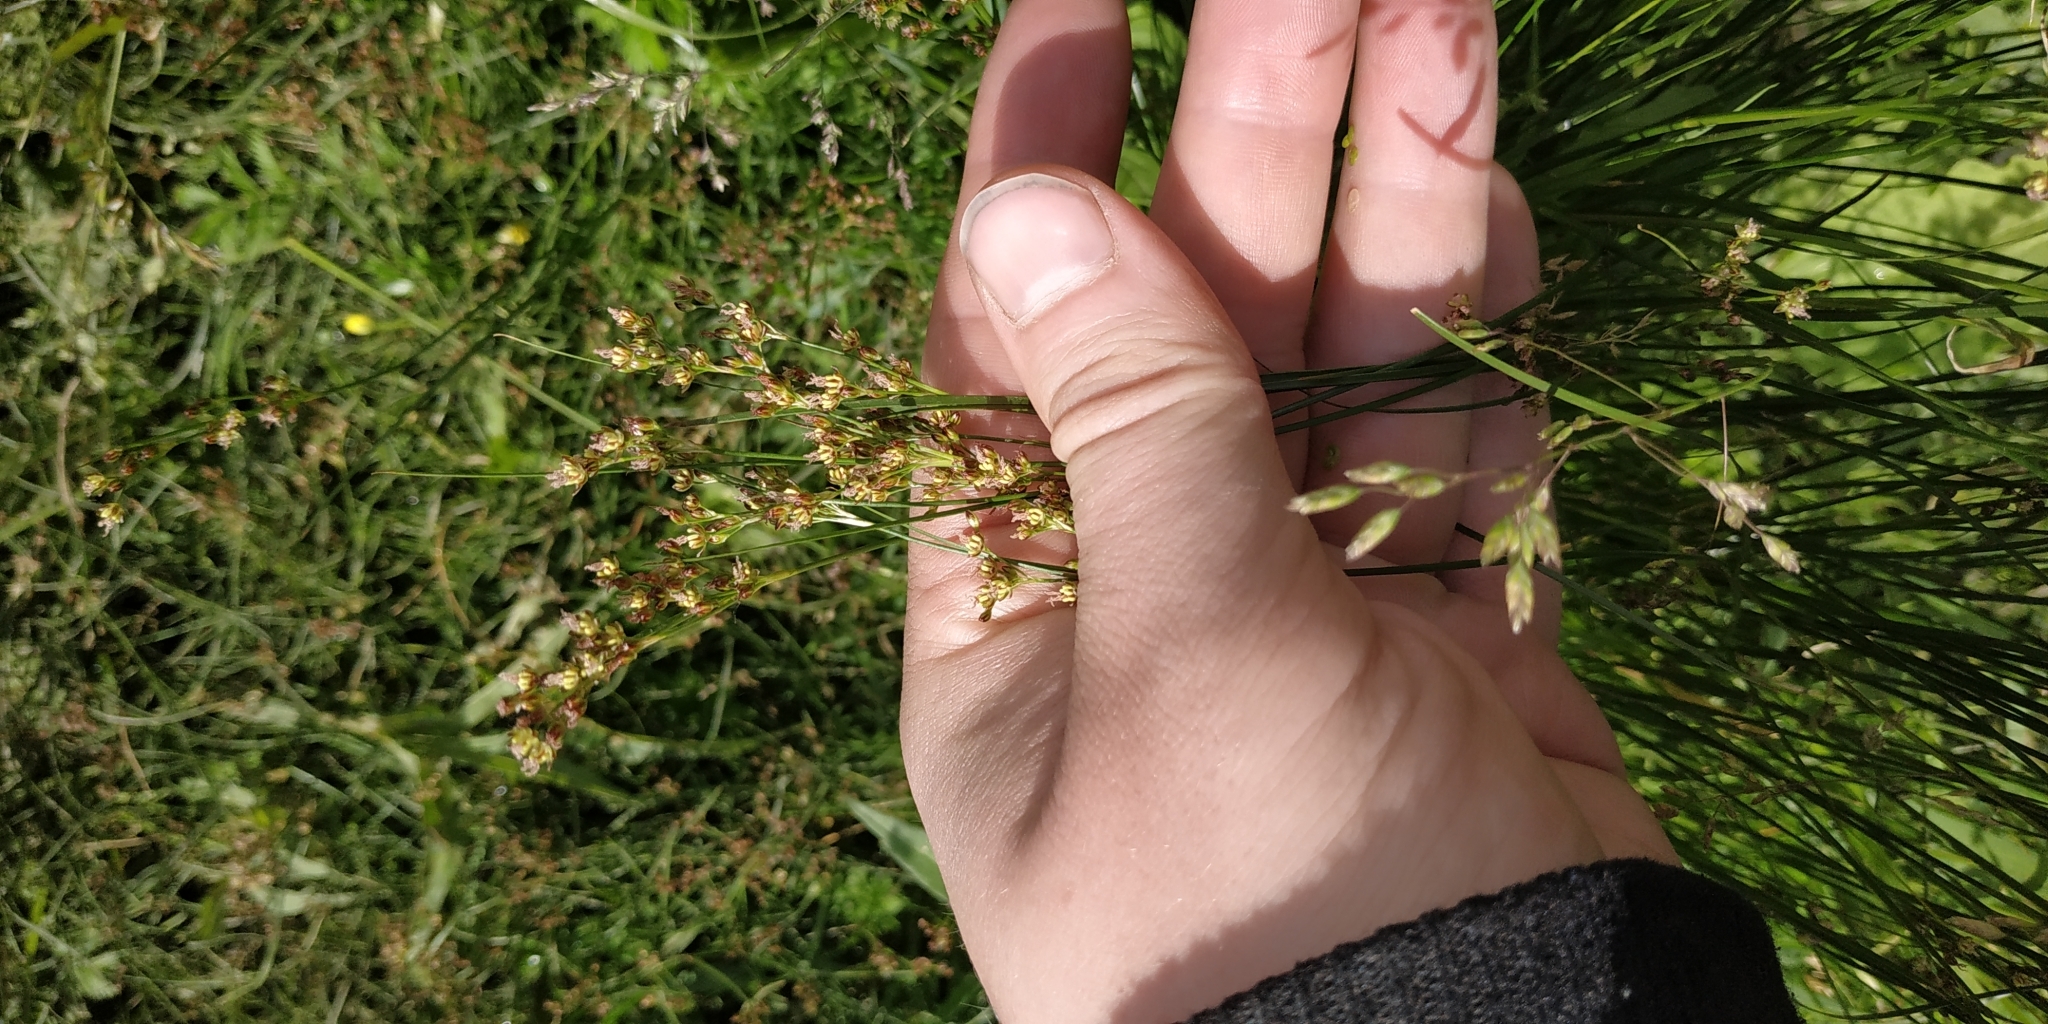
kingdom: Plantae
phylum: Tracheophyta
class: Liliopsida
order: Poales
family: Juncaceae
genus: Juncus
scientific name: Juncus compressus
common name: Round-fruited rush
